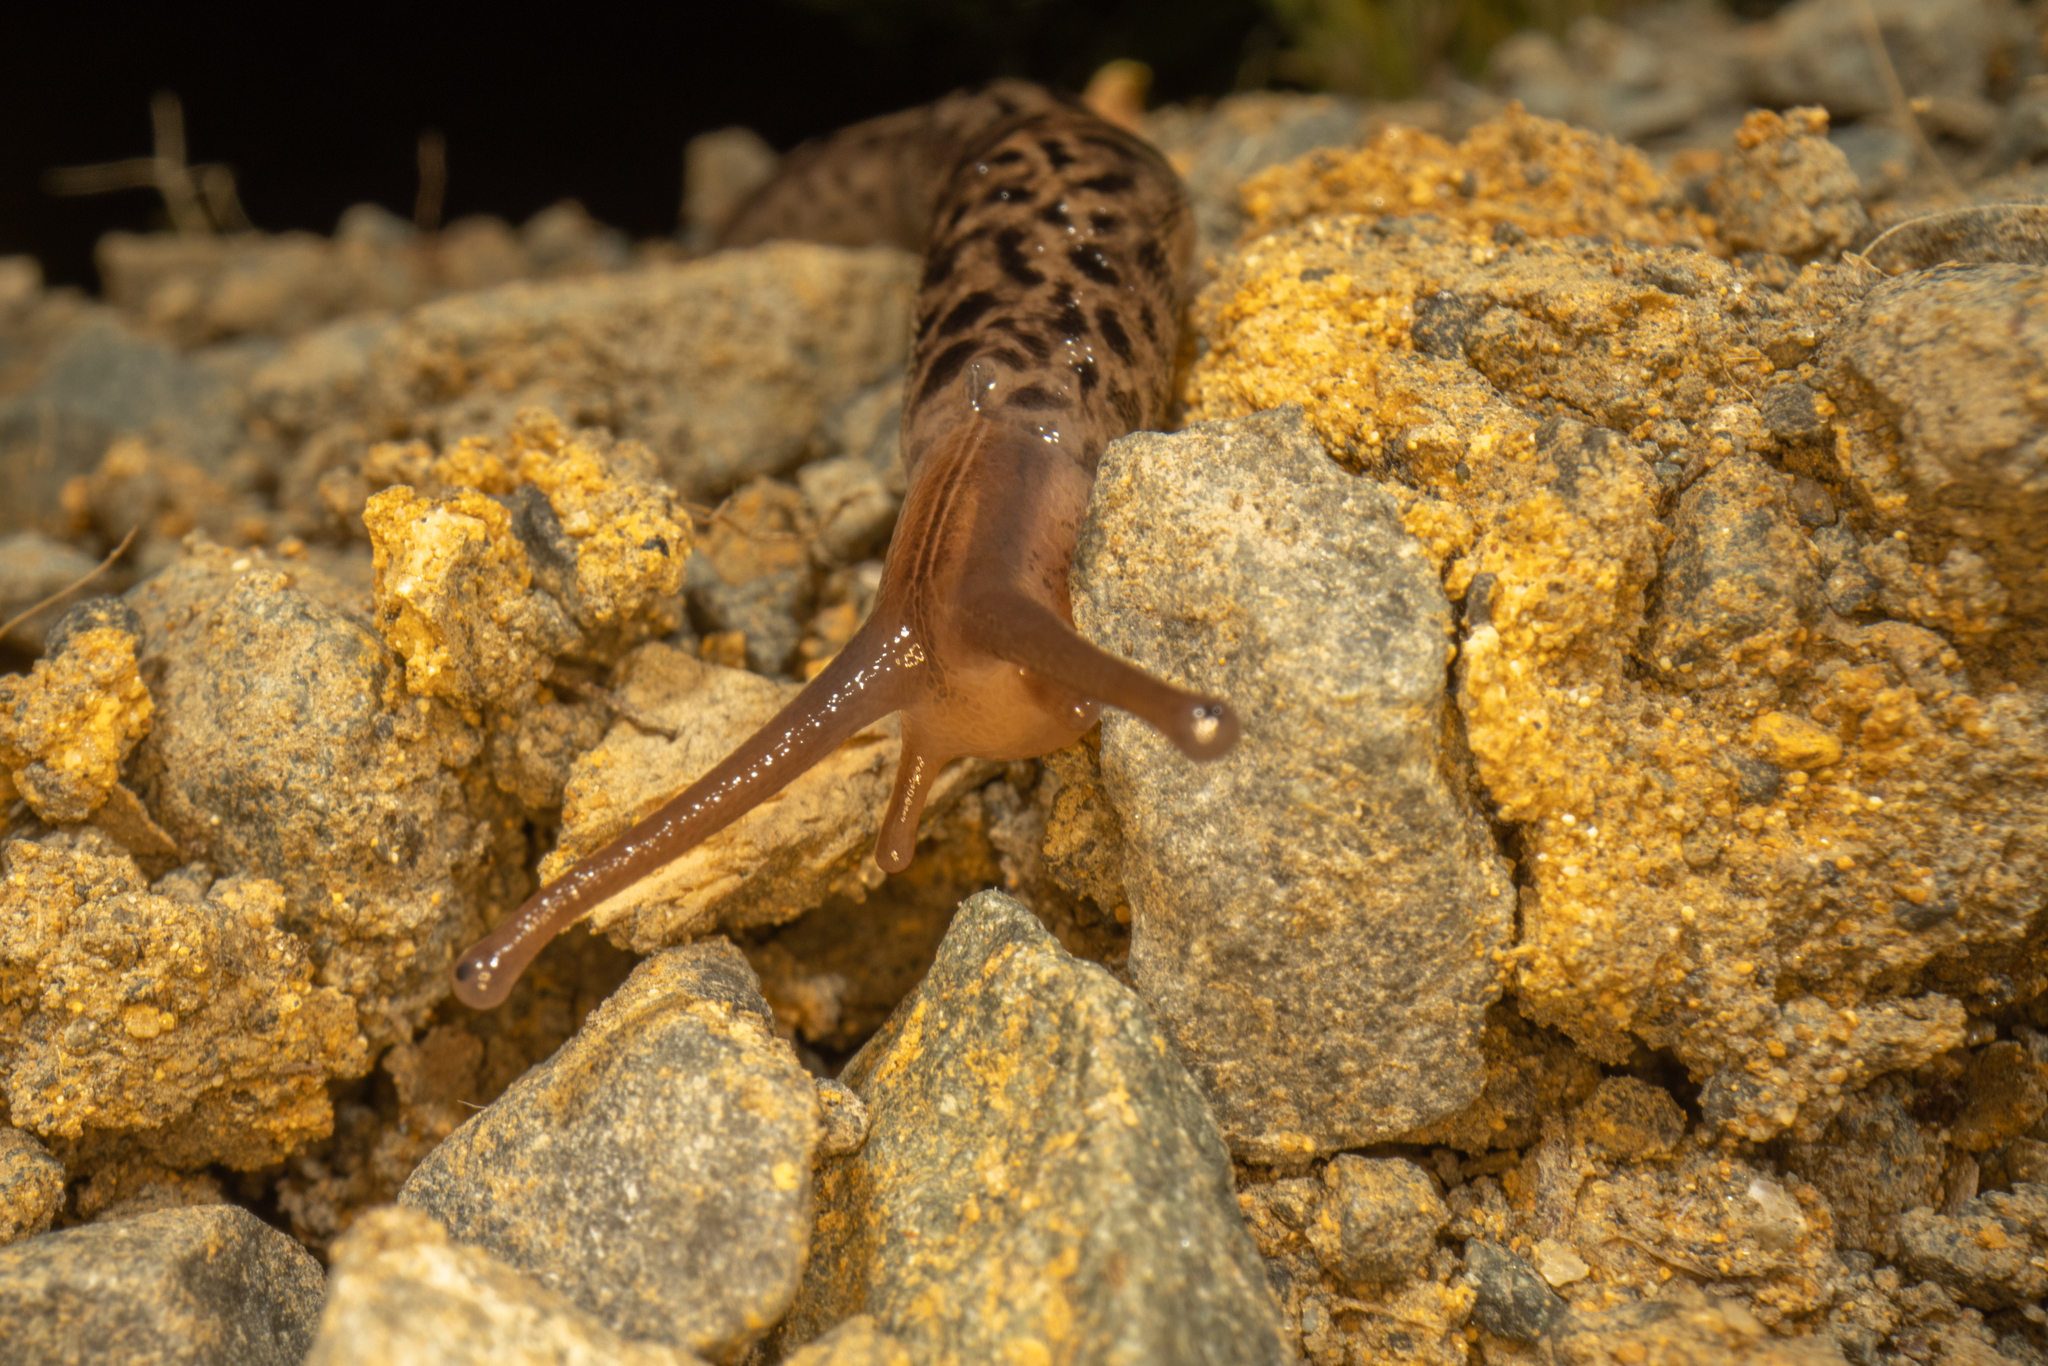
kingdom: Animalia
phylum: Mollusca
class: Gastropoda
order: Stylommatophora
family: Limacidae
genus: Limax
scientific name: Limax maximus
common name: Great grey slug
